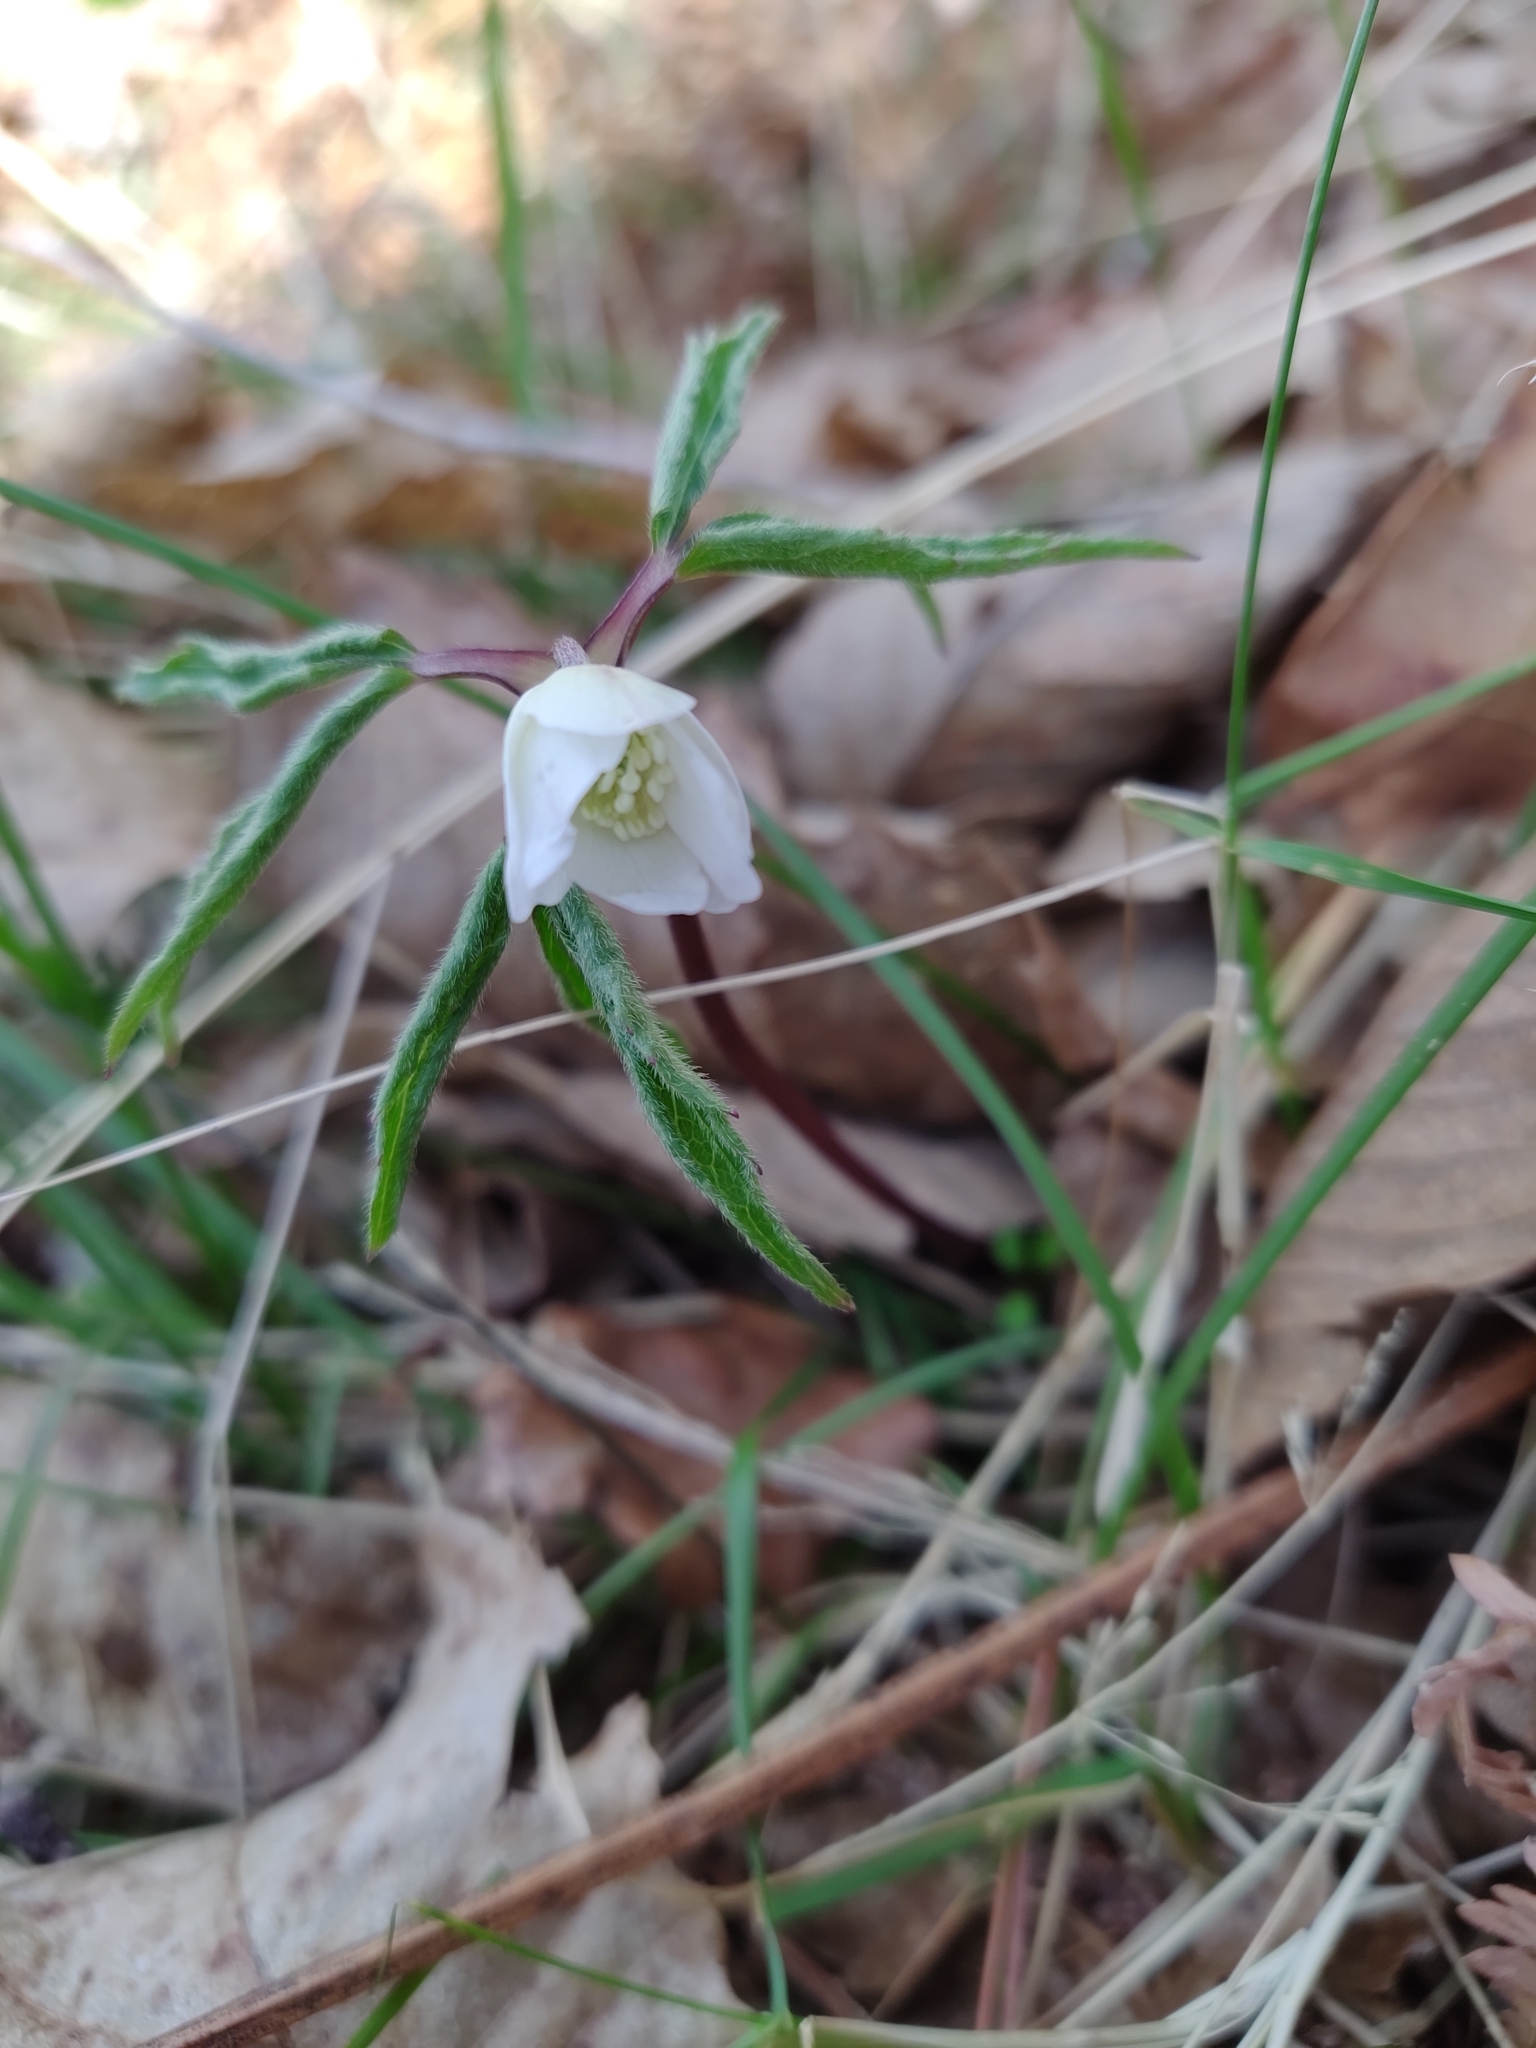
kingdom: Plantae
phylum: Tracheophyta
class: Magnoliopsida
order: Ranunculales
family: Ranunculaceae
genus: Anemone
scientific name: Anemone trifolia
